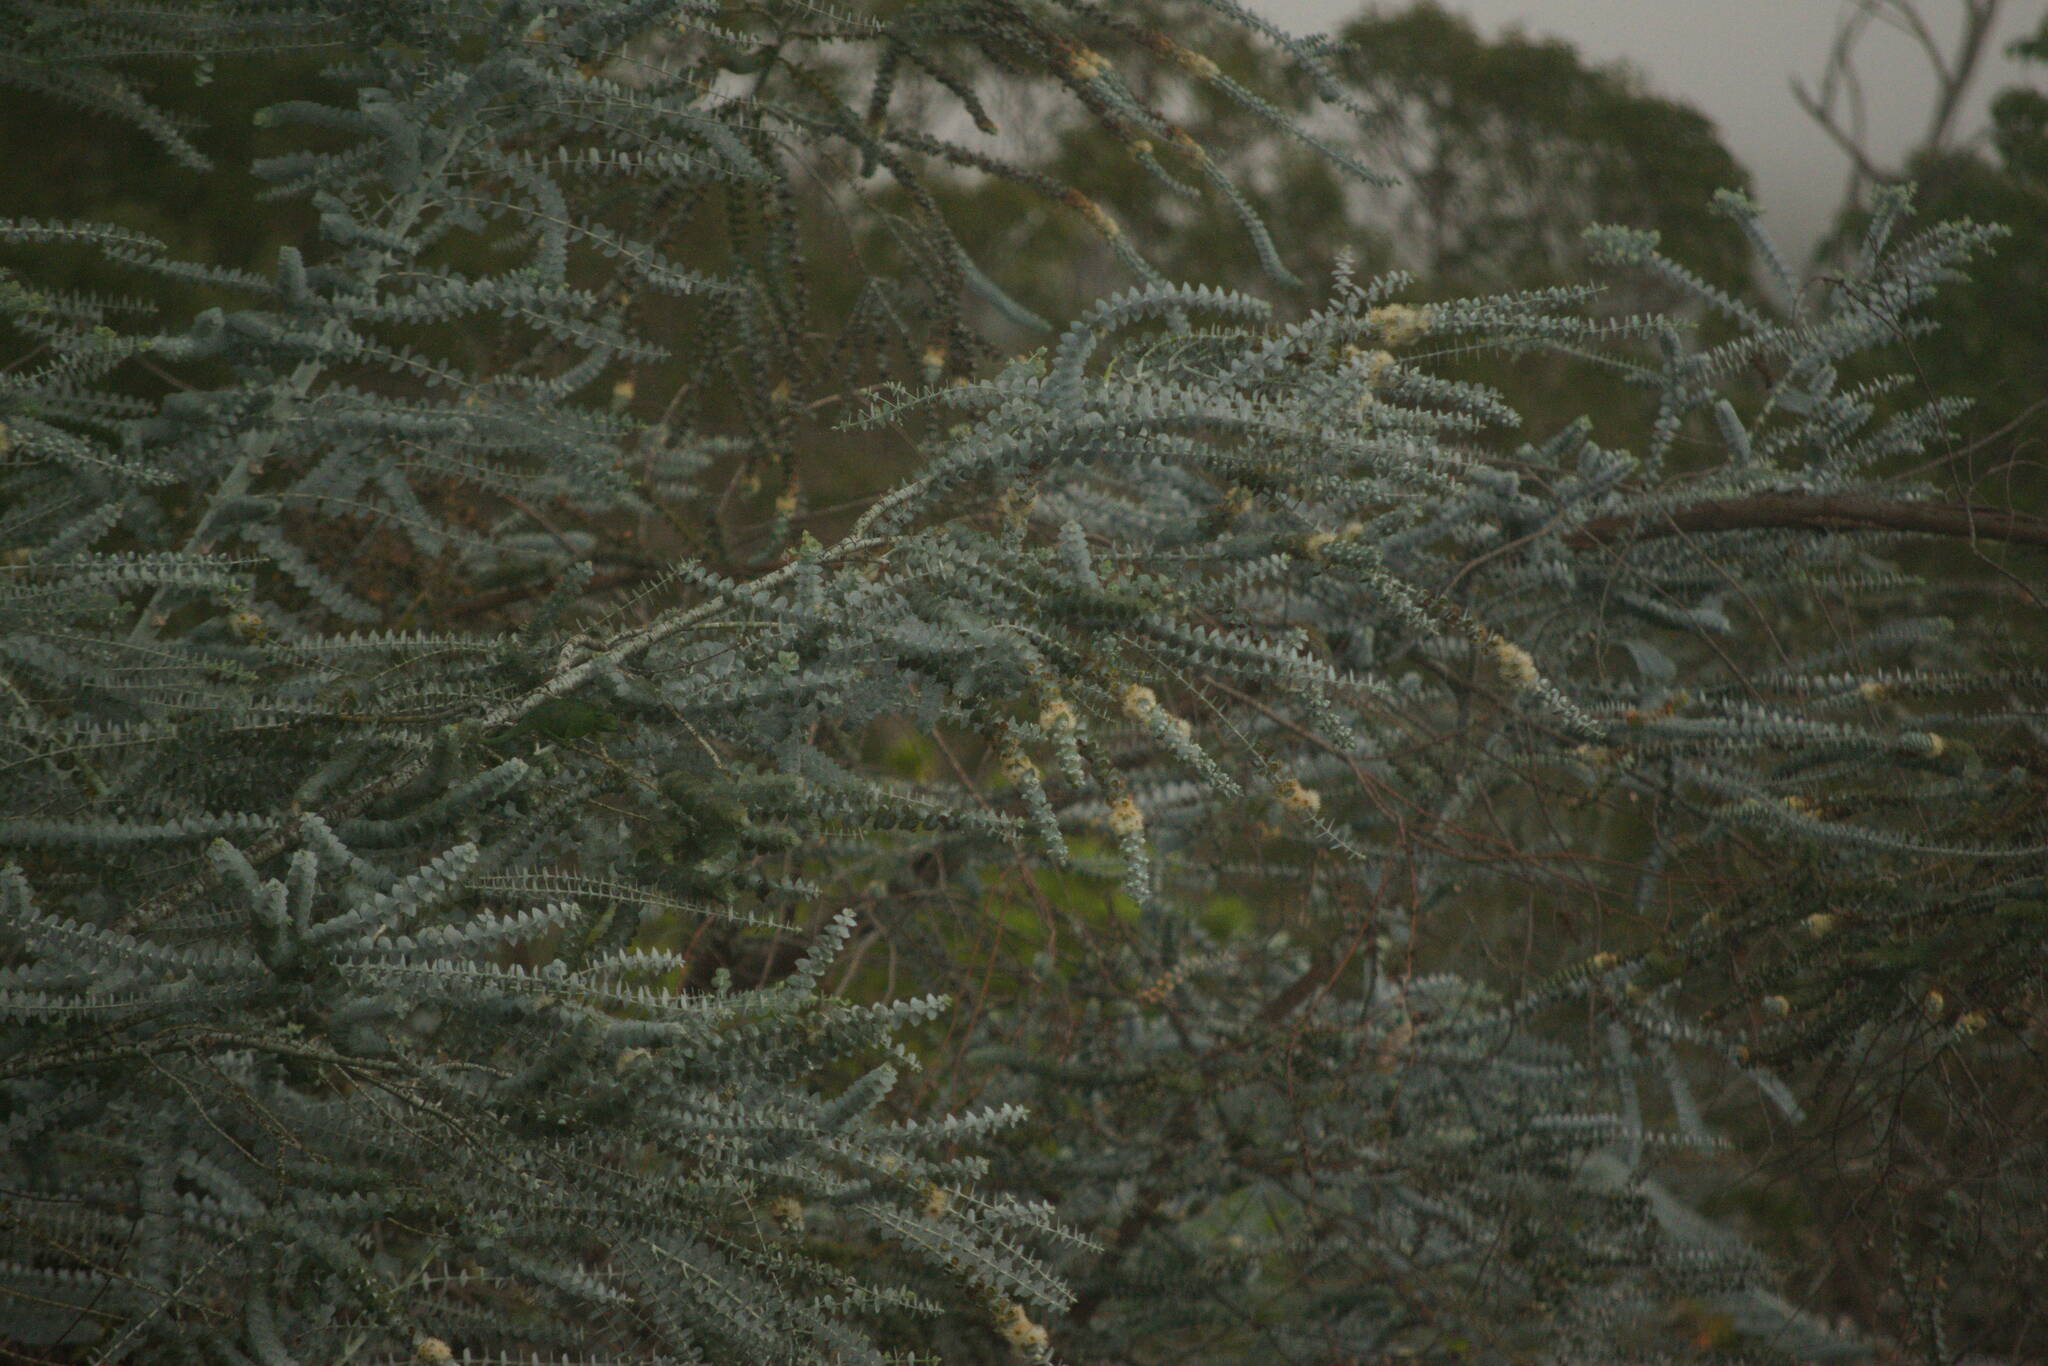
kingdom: Plantae
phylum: Tracheophyta
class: Magnoliopsida
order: Myrtales
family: Myrtaceae
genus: Eucalyptus
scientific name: Eucalyptus pulverulenta
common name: Silverleaf mountain gum
